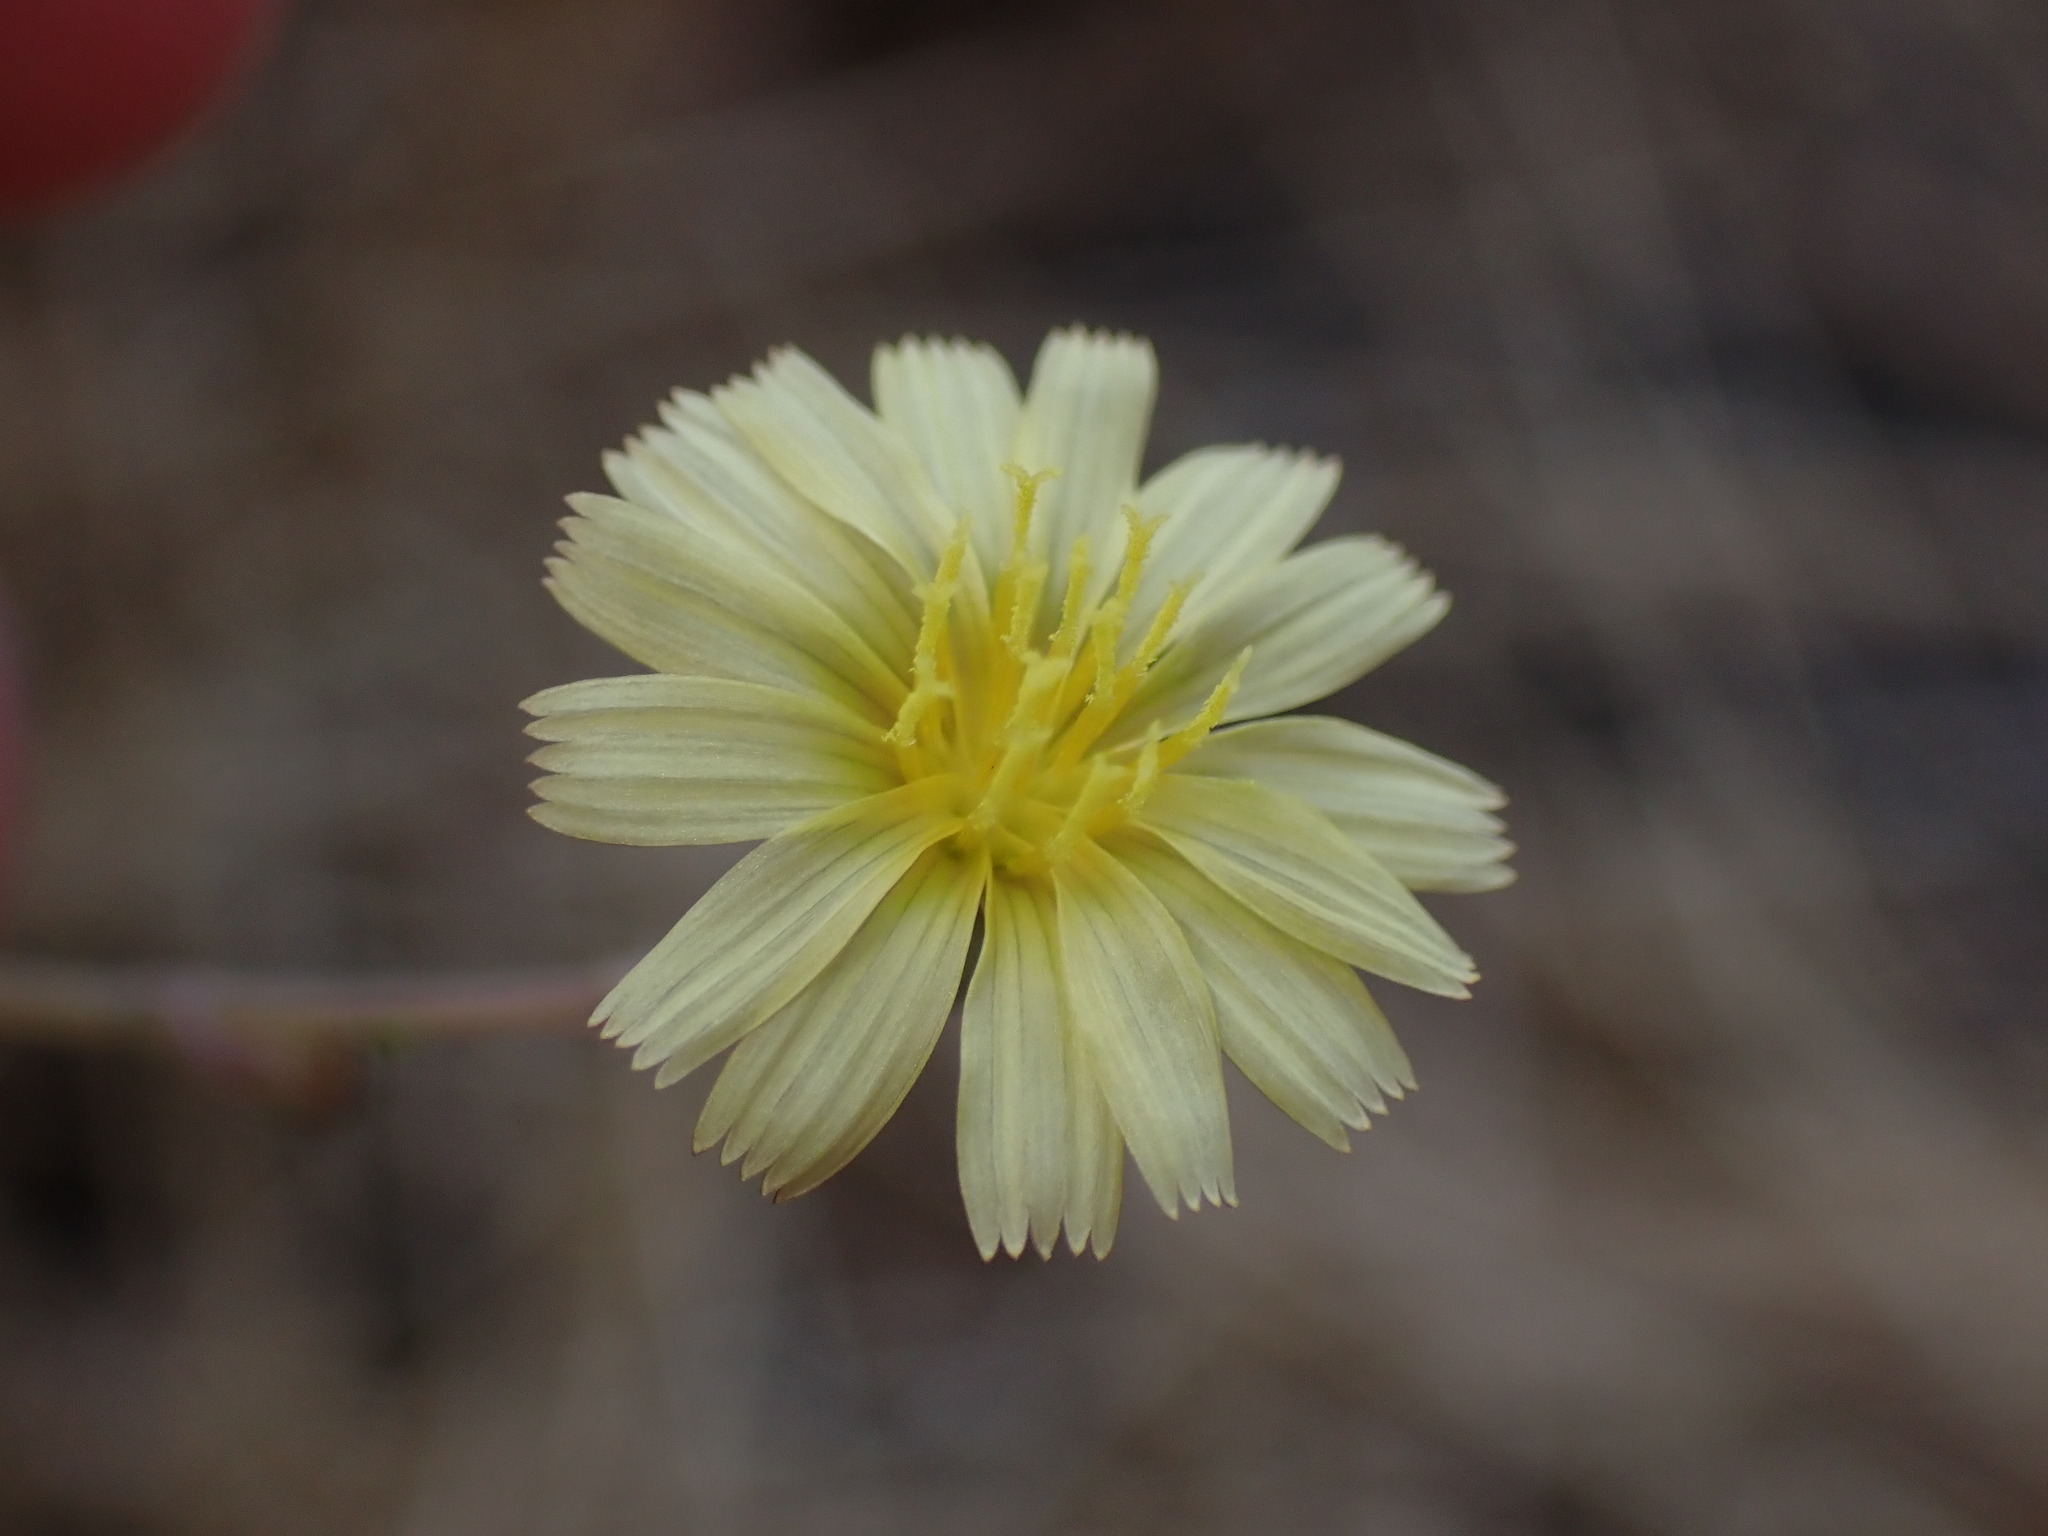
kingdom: Plantae
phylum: Tracheophyta
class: Magnoliopsida
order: Asterales
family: Asteraceae
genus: Lactuca
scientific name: Lactuca serriola
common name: Prickly lettuce
